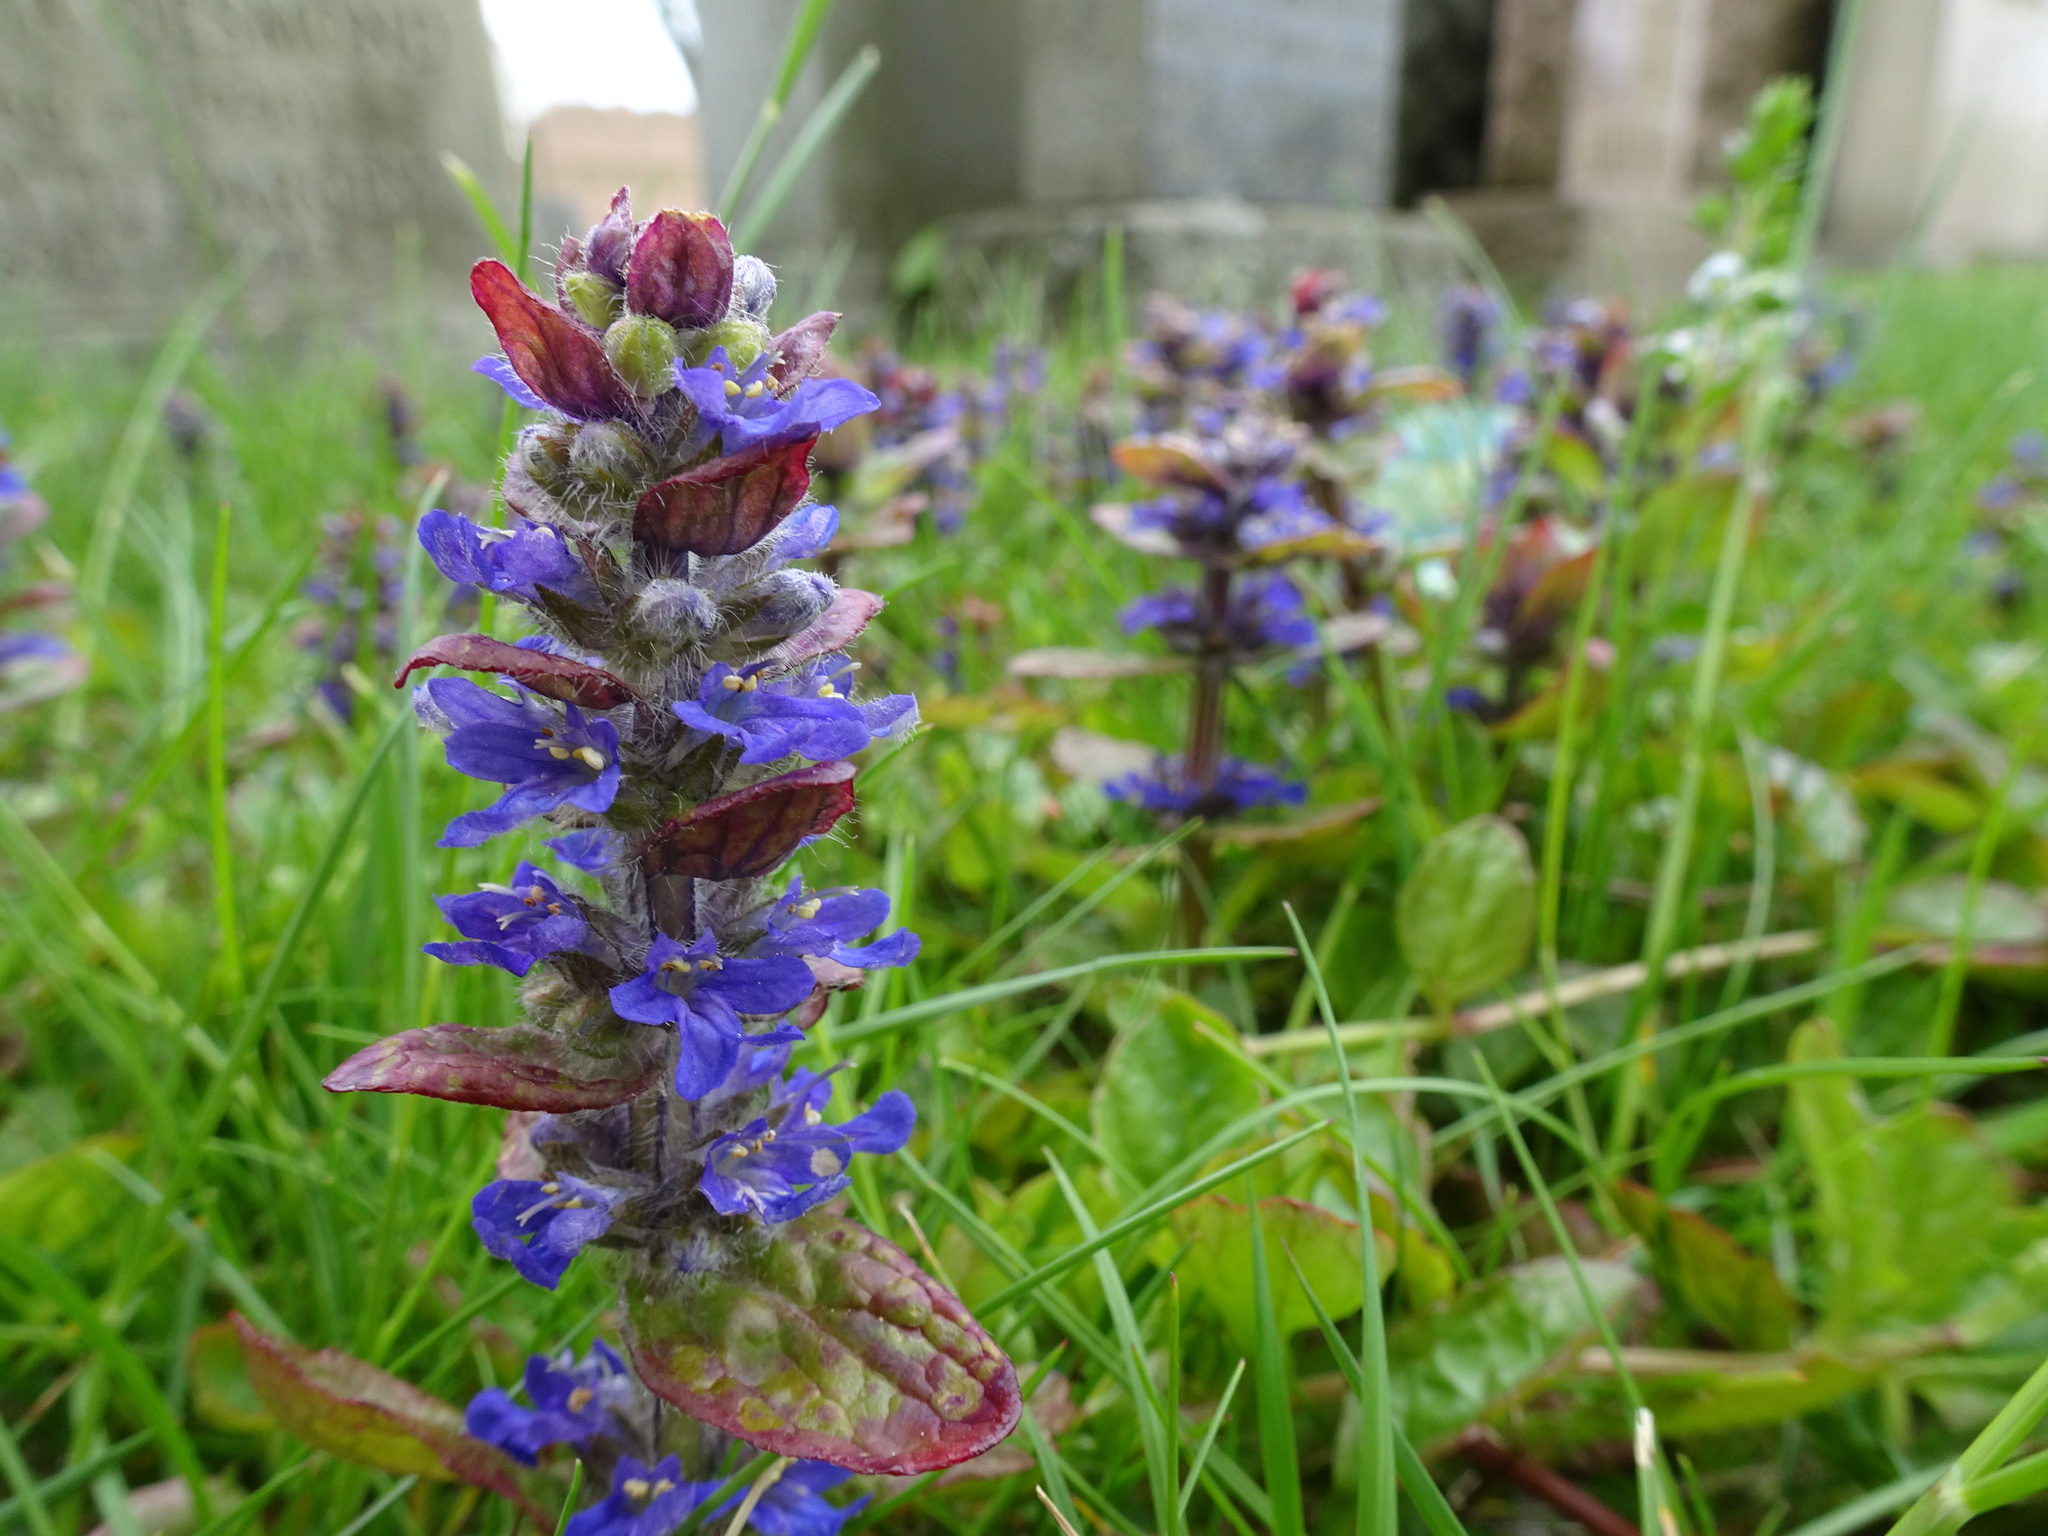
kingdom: Plantae
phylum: Tracheophyta
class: Magnoliopsida
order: Lamiales
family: Lamiaceae
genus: Ajuga
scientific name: Ajuga reptans
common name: Bugle
